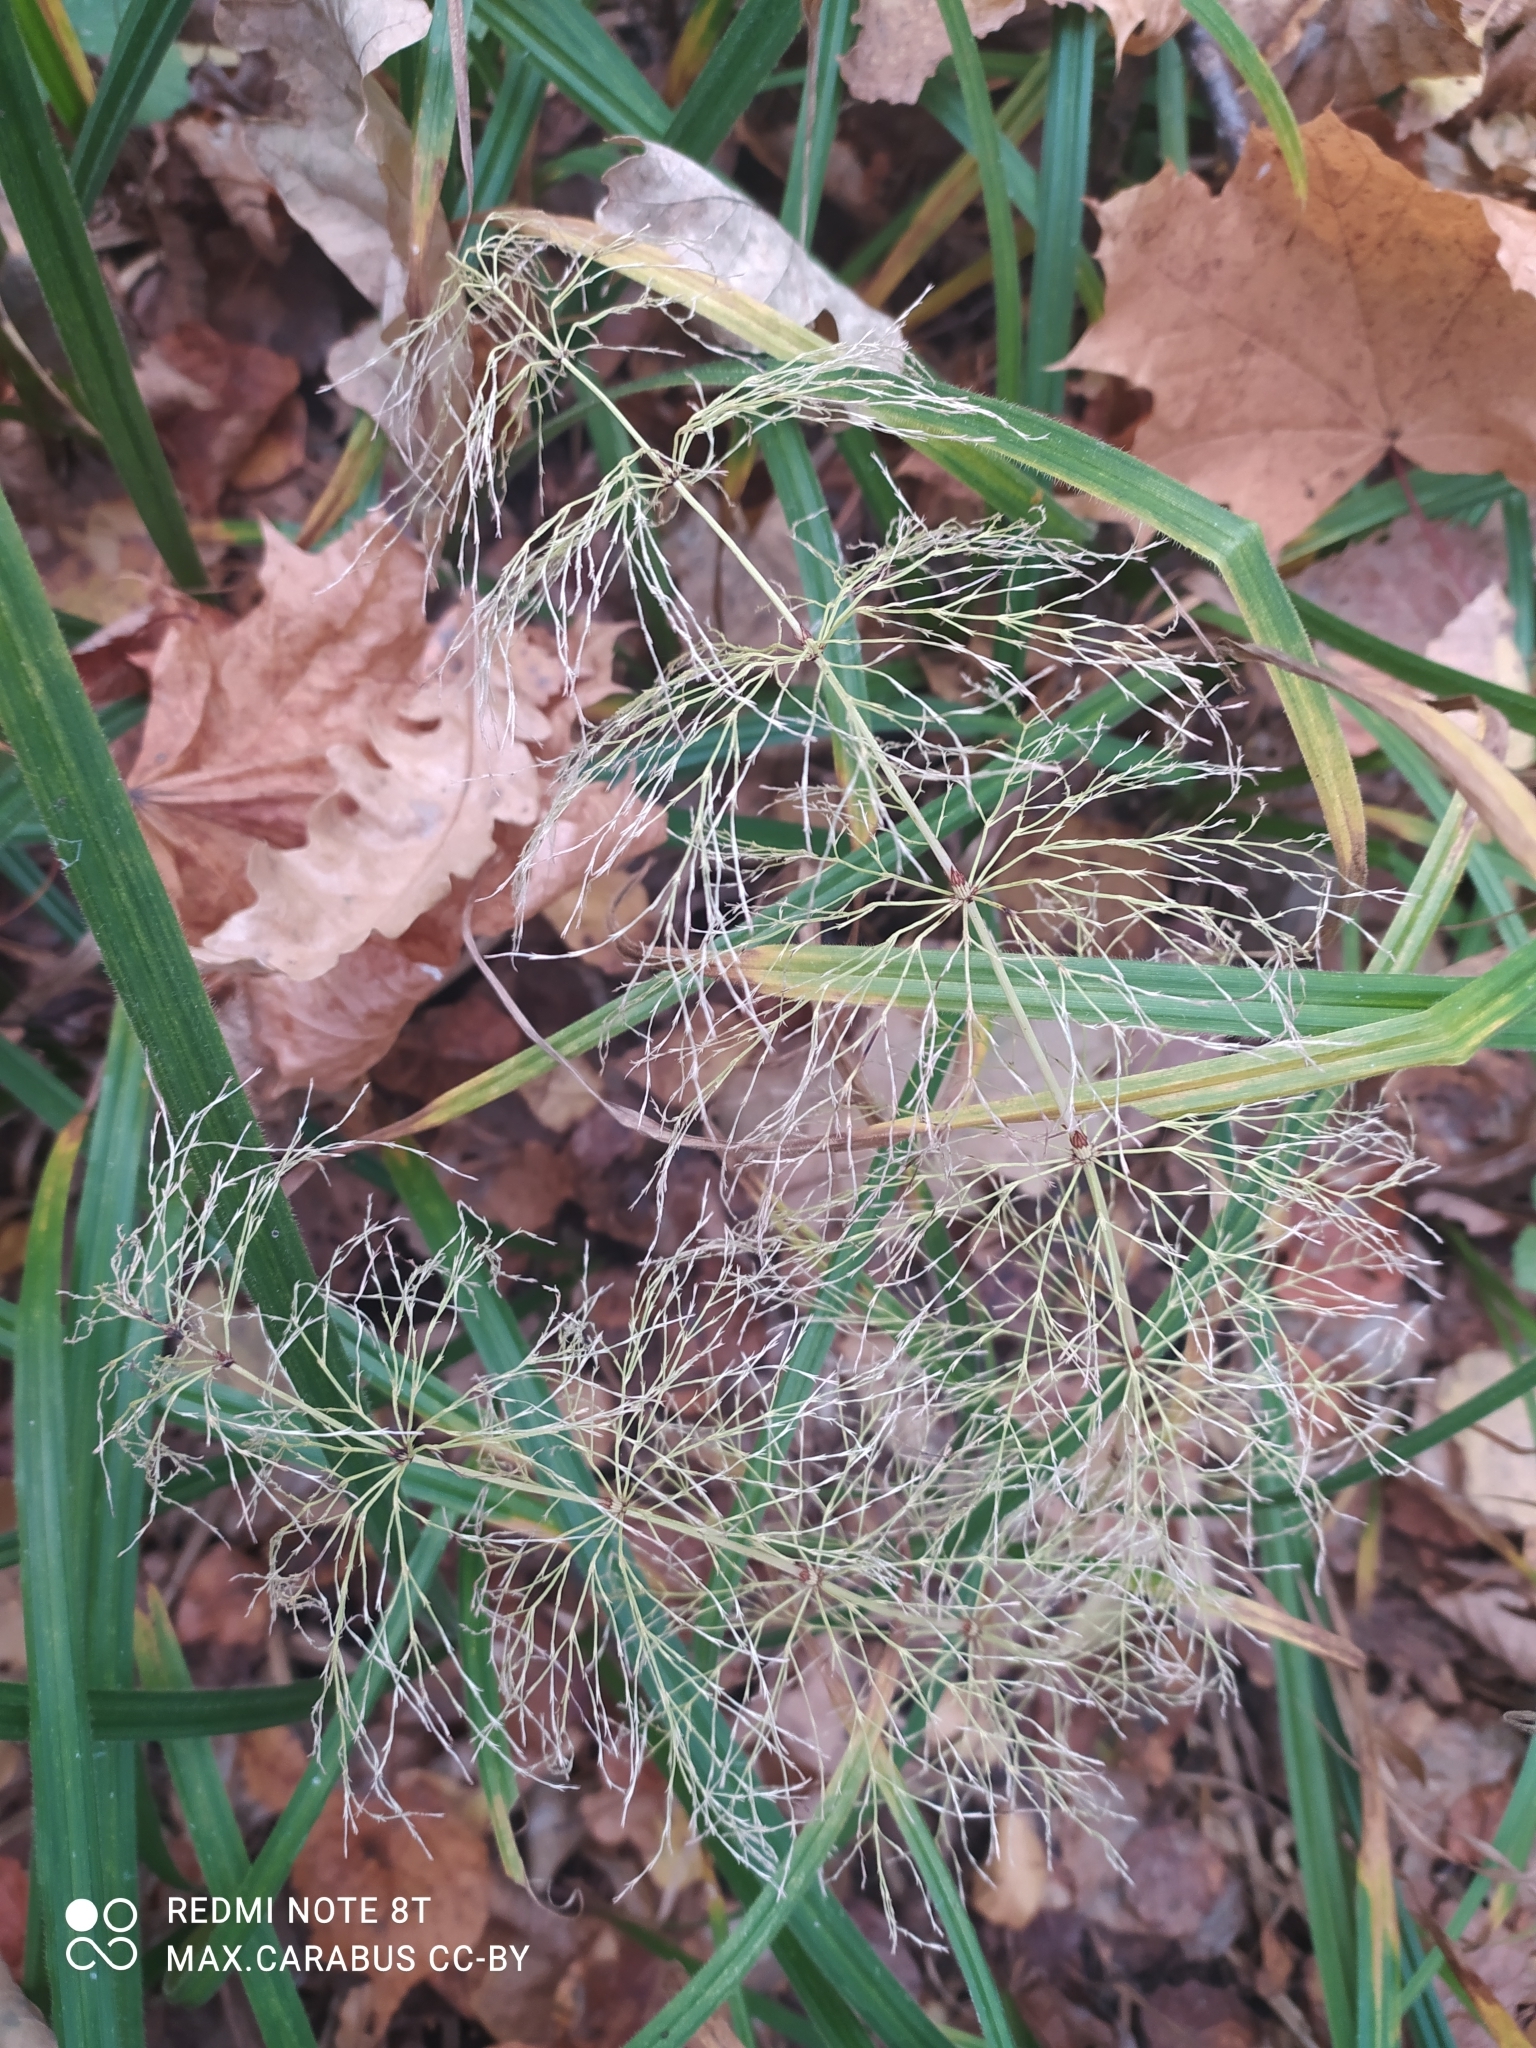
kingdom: Plantae
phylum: Tracheophyta
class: Polypodiopsida
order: Equisetales
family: Equisetaceae
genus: Equisetum
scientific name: Equisetum sylvaticum
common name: Wood horsetail
